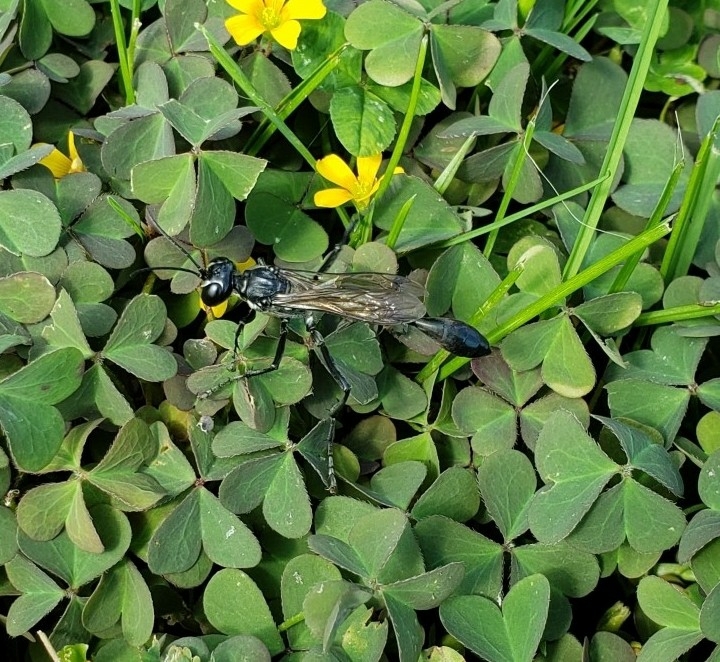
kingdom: Animalia
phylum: Arthropoda
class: Insecta
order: Hymenoptera
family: Sphecidae
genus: Eremnophila
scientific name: Eremnophila aureonotata
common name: Gold-marked thread-waisted wasp
